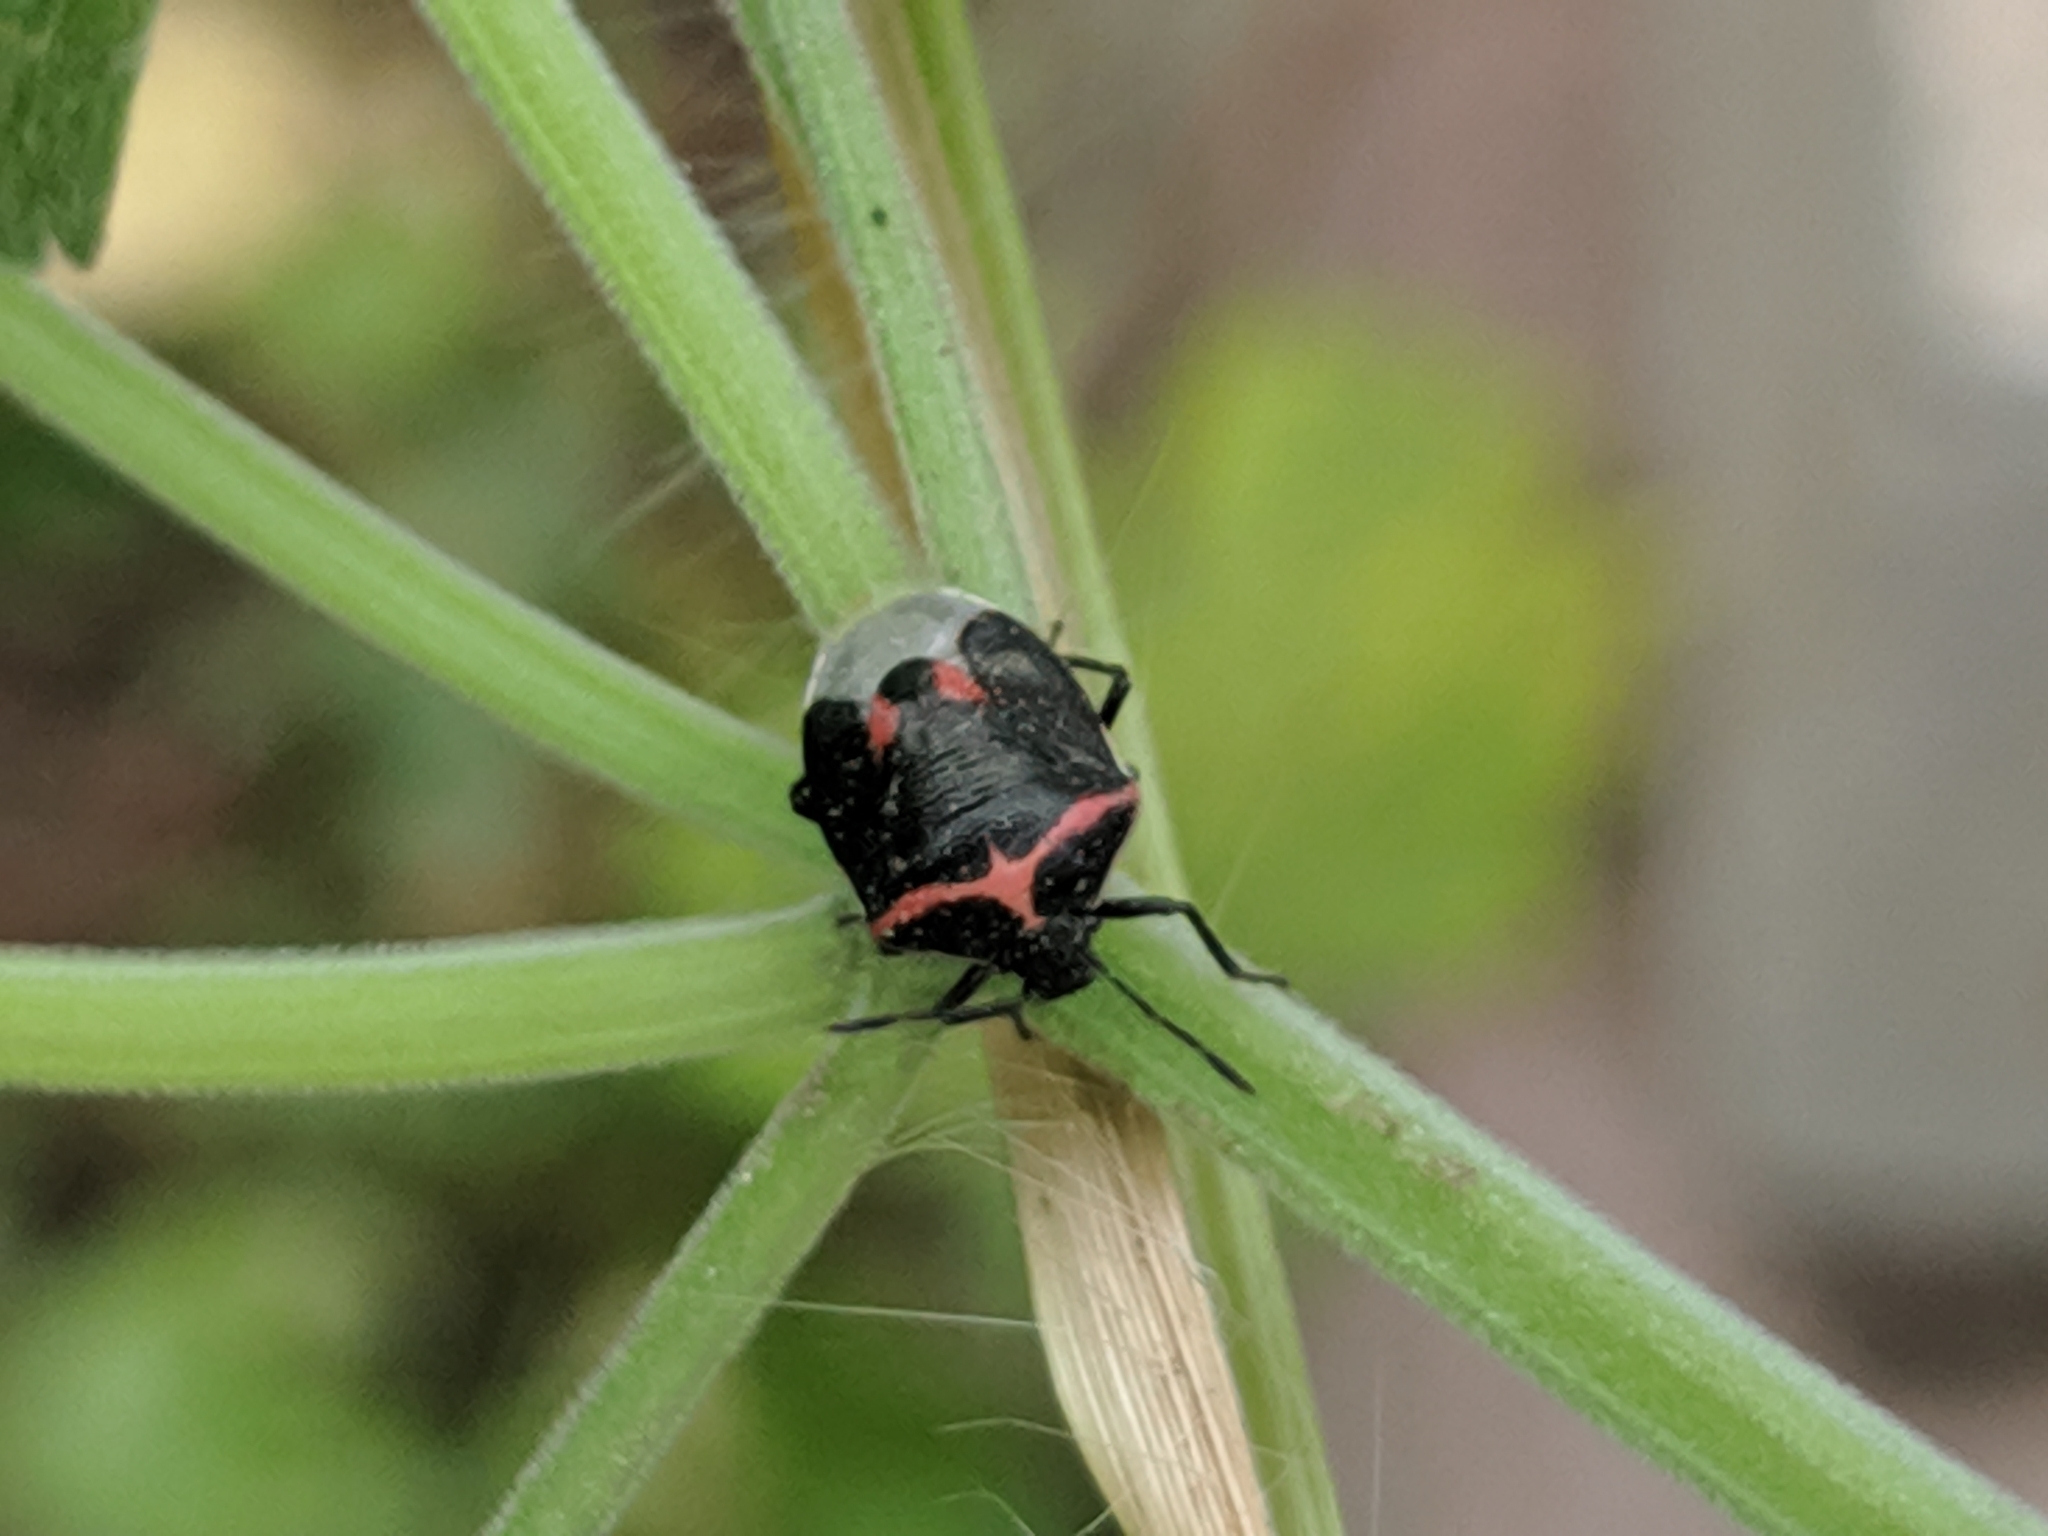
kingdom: Animalia
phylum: Arthropoda
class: Insecta
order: Hemiptera
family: Pentatomidae
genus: Cosmopepla
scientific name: Cosmopepla lintneriana
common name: Twice-stabbed stink bug
